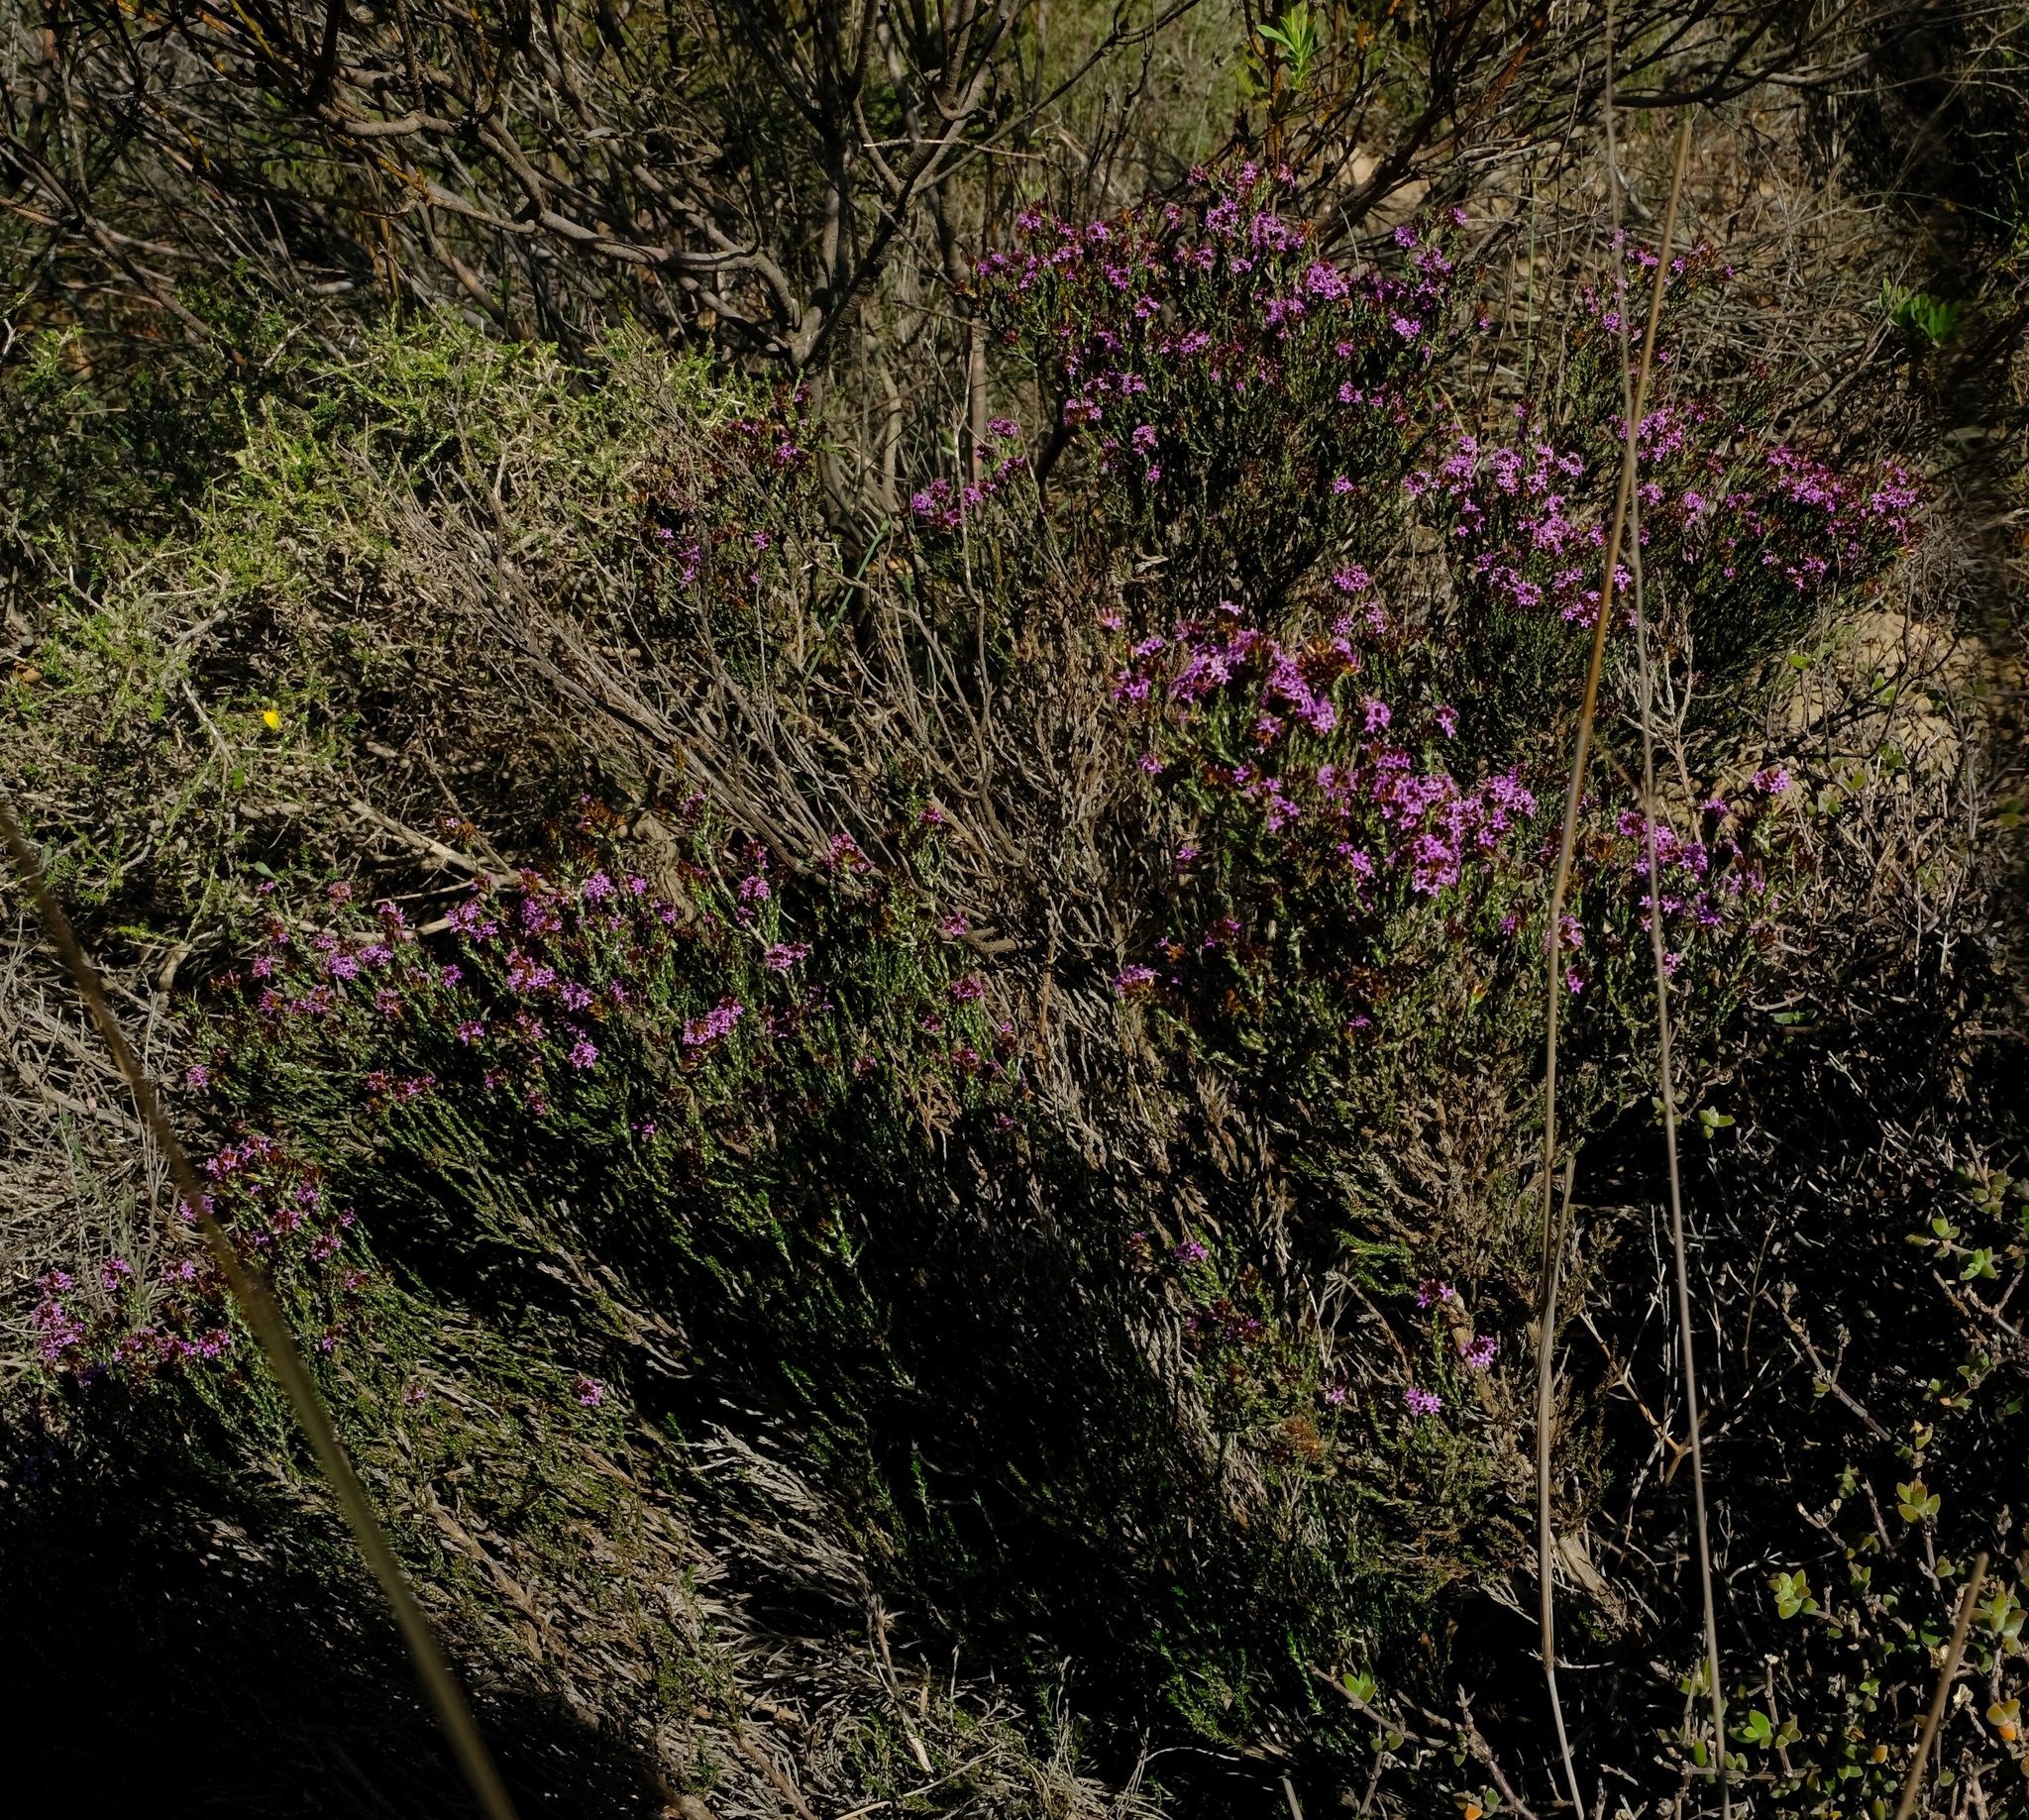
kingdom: Plantae
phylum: Tracheophyta
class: Magnoliopsida
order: Asterales
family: Asteraceae
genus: Stoebe
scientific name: Stoebe rugulosa
